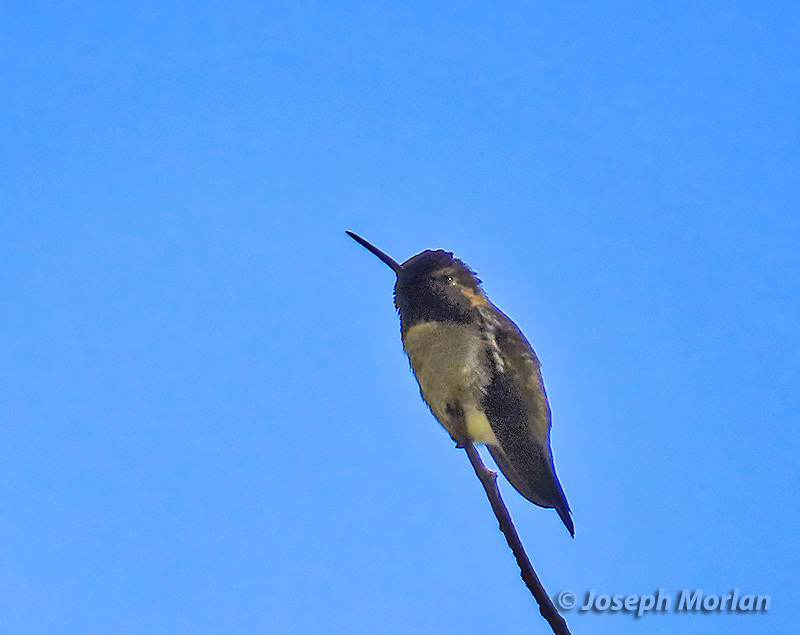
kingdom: Animalia
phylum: Chordata
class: Aves
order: Apodiformes
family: Trochilidae
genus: Calypte
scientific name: Calypte anna
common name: Anna's hummingbird
